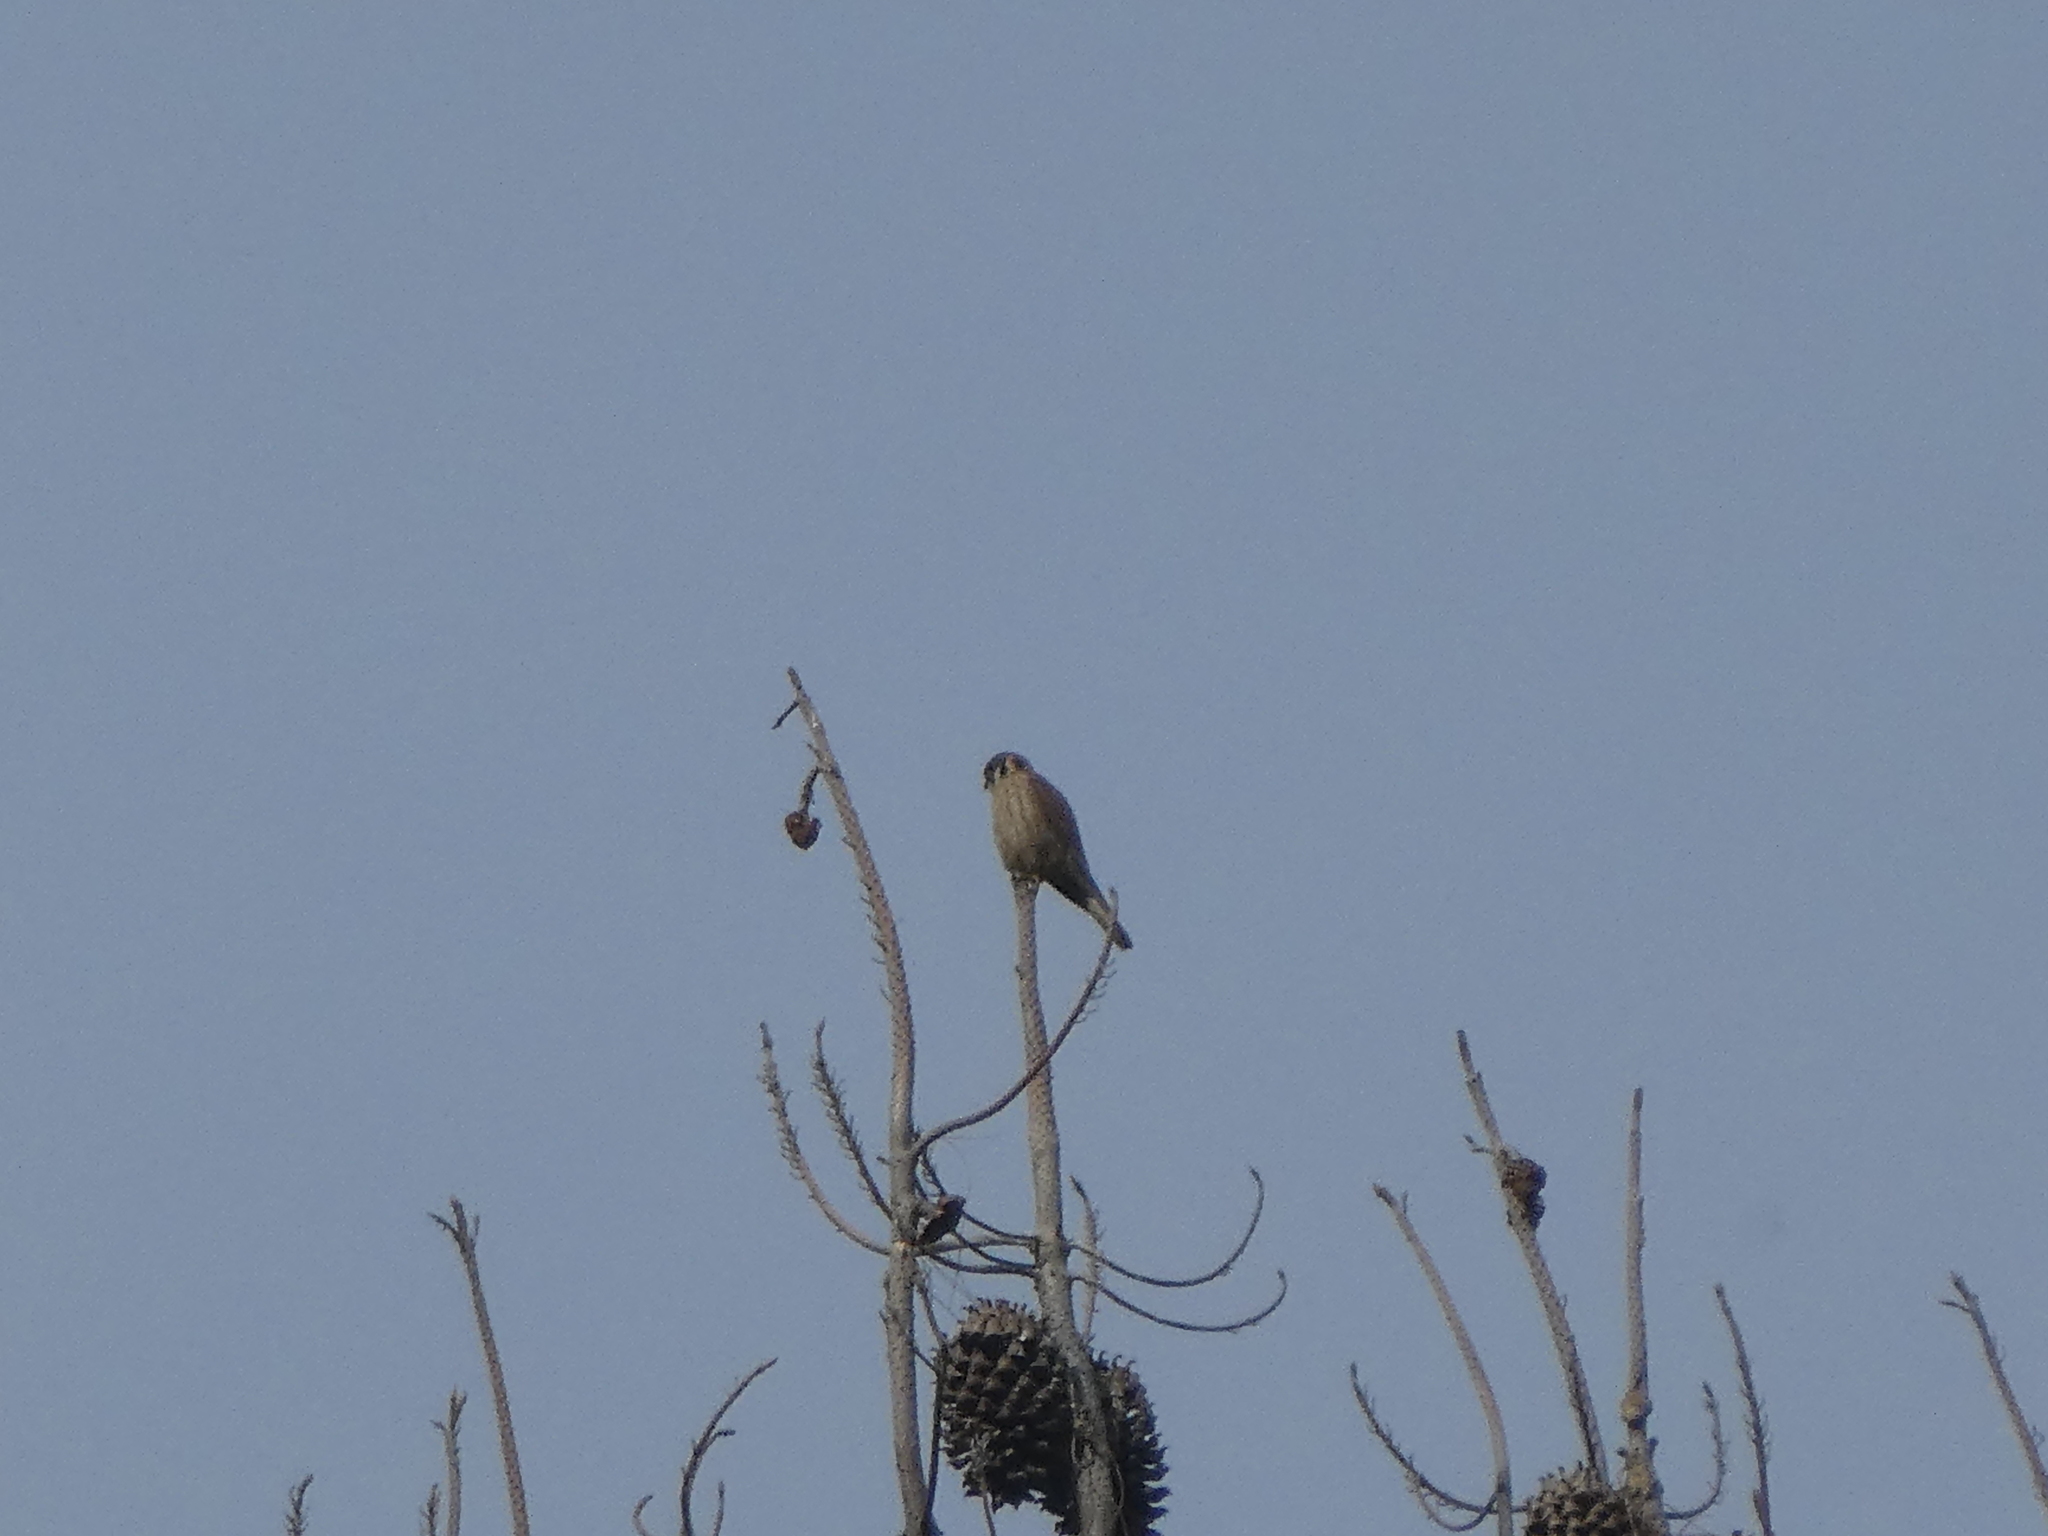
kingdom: Animalia
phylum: Chordata
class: Aves
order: Falconiformes
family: Falconidae
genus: Falco
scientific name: Falco sparverius
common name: American kestrel
